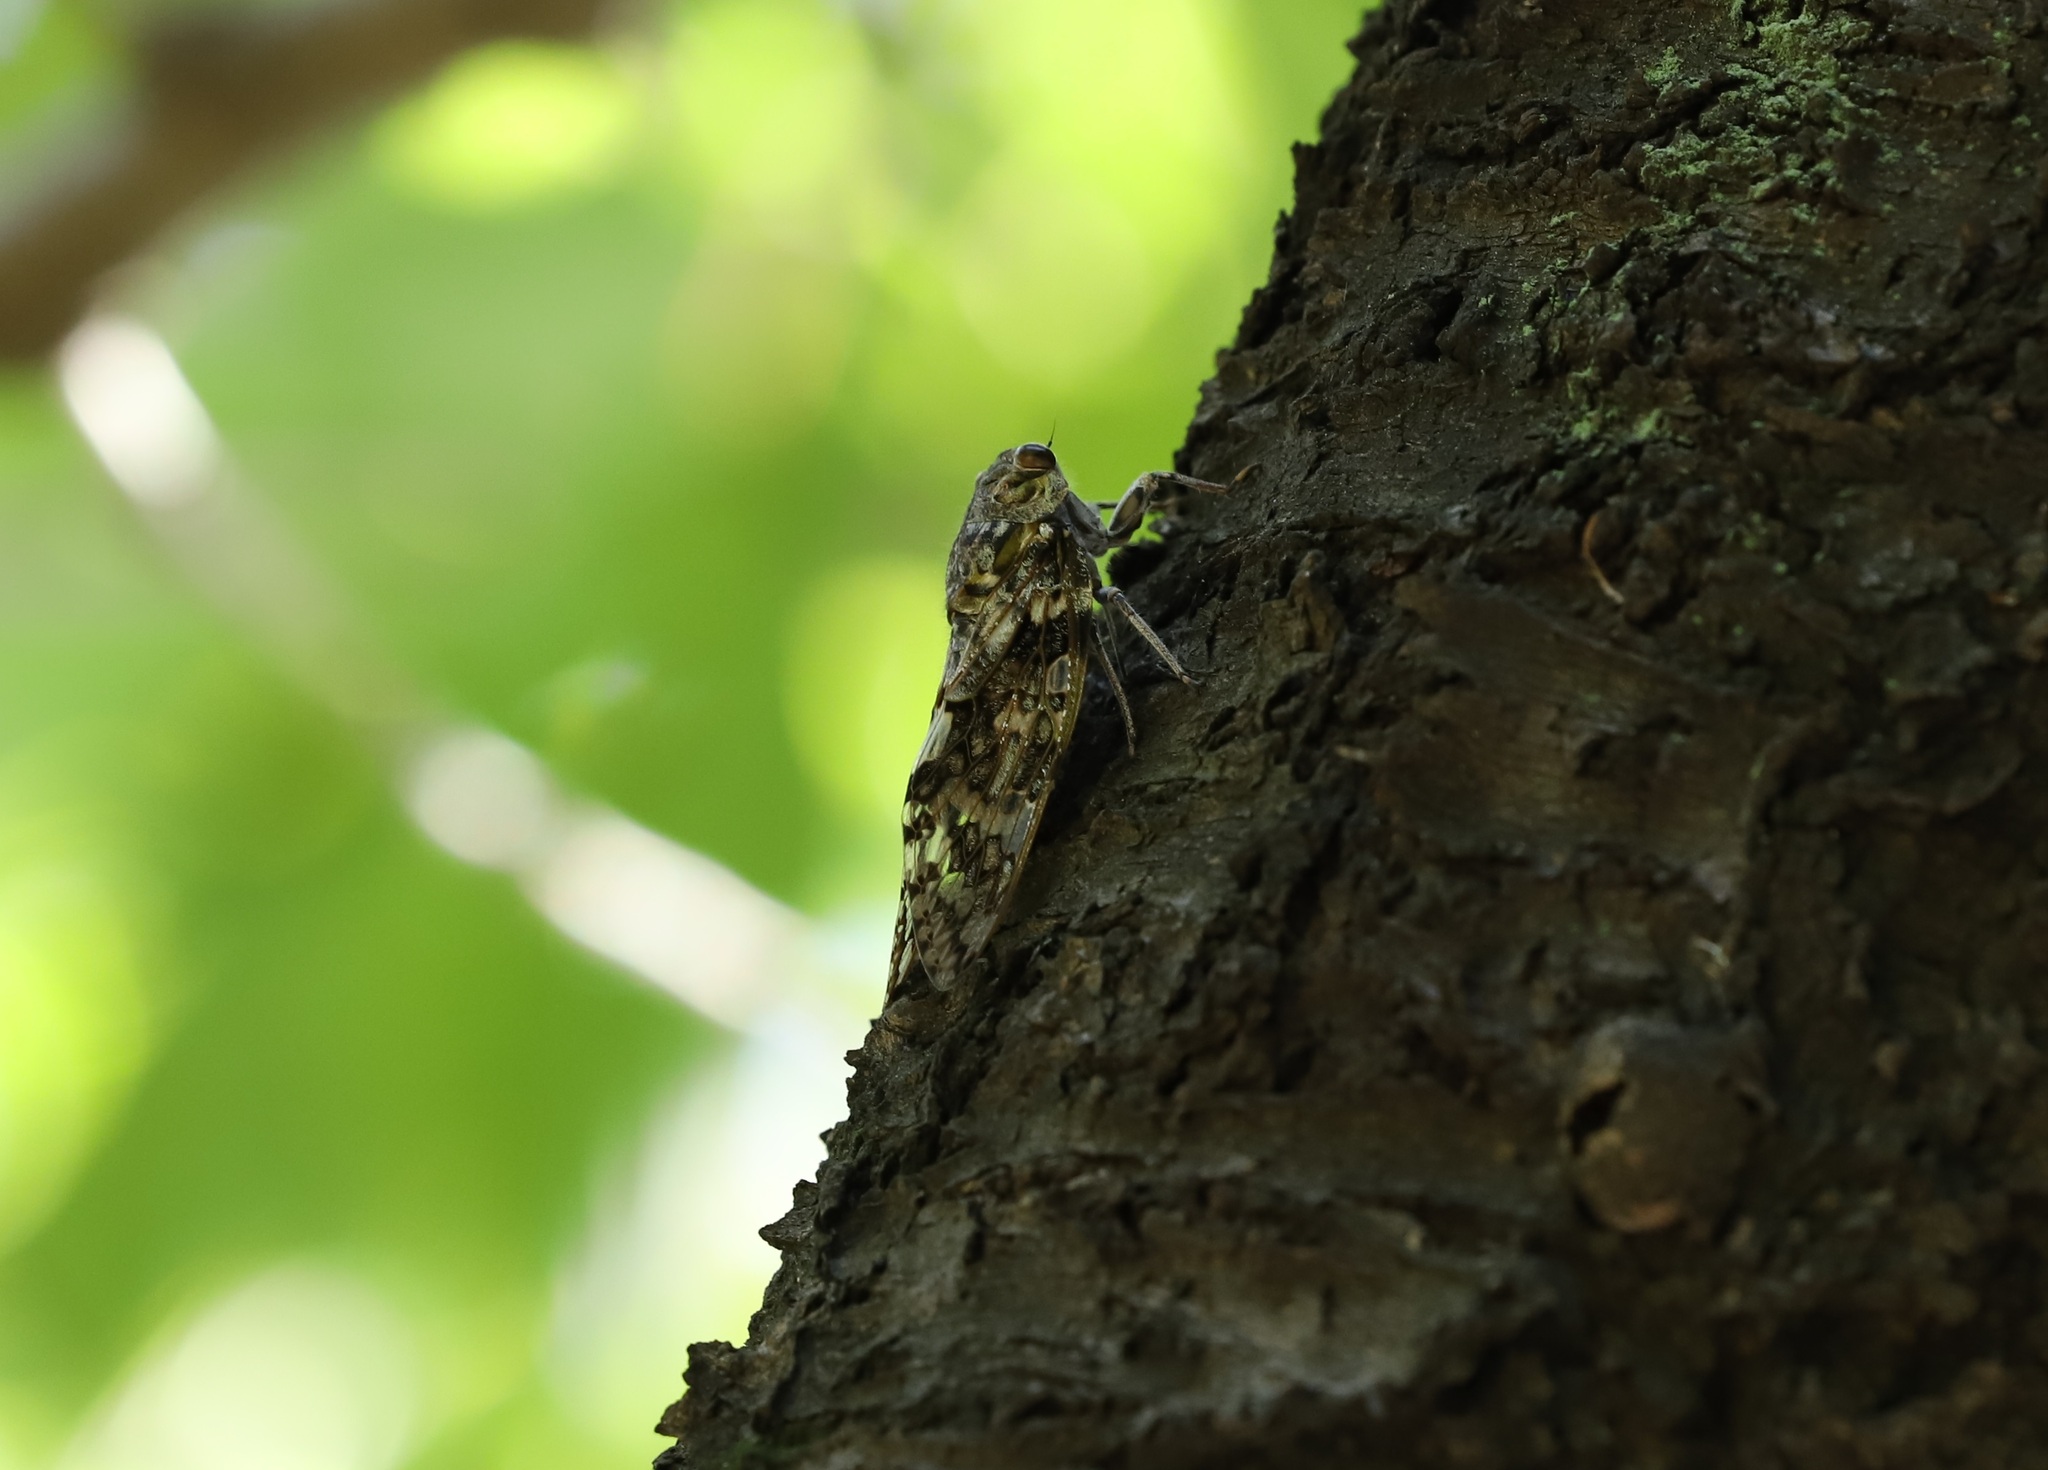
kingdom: Animalia
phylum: Arthropoda
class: Insecta
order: Hemiptera
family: Cicadidae
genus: Platypleura
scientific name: Platypleura kaempferi
